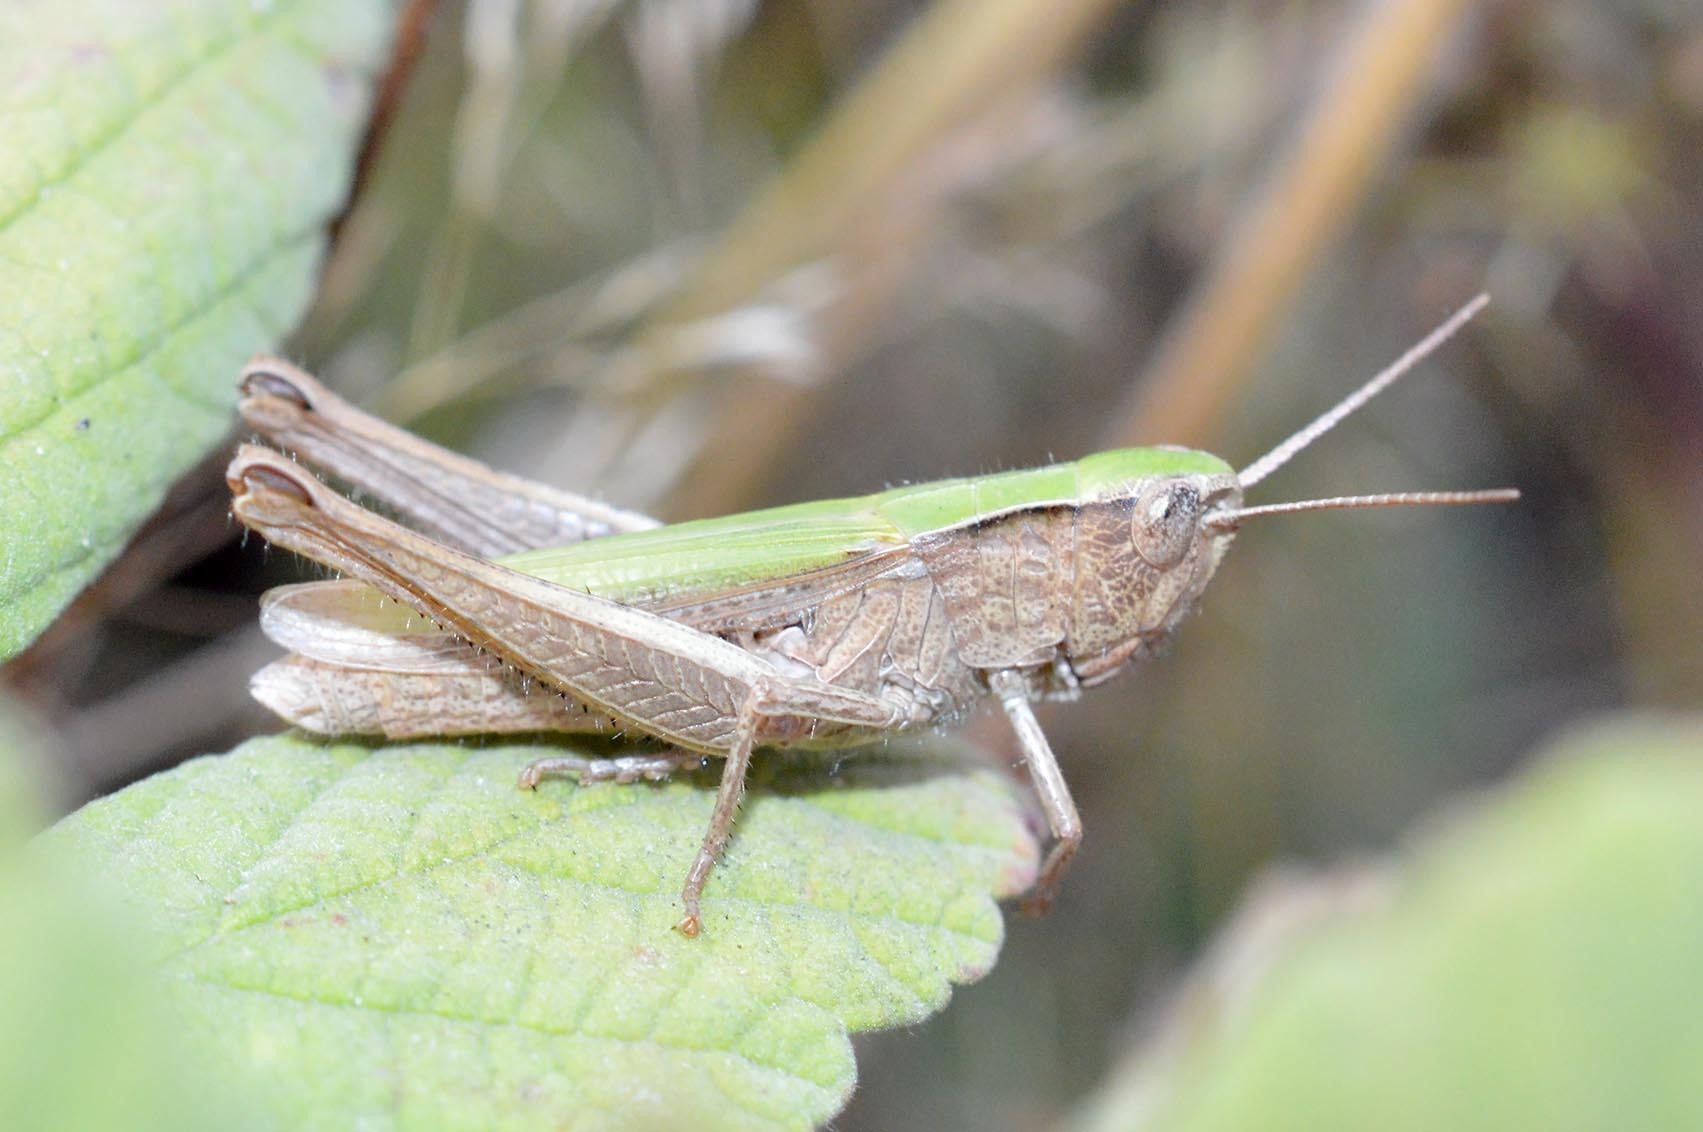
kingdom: Animalia
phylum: Arthropoda
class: Insecta
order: Orthoptera
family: Acrididae
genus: Chorthippus
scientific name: Chorthippus dorsatus
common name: Steppe grasshopper
